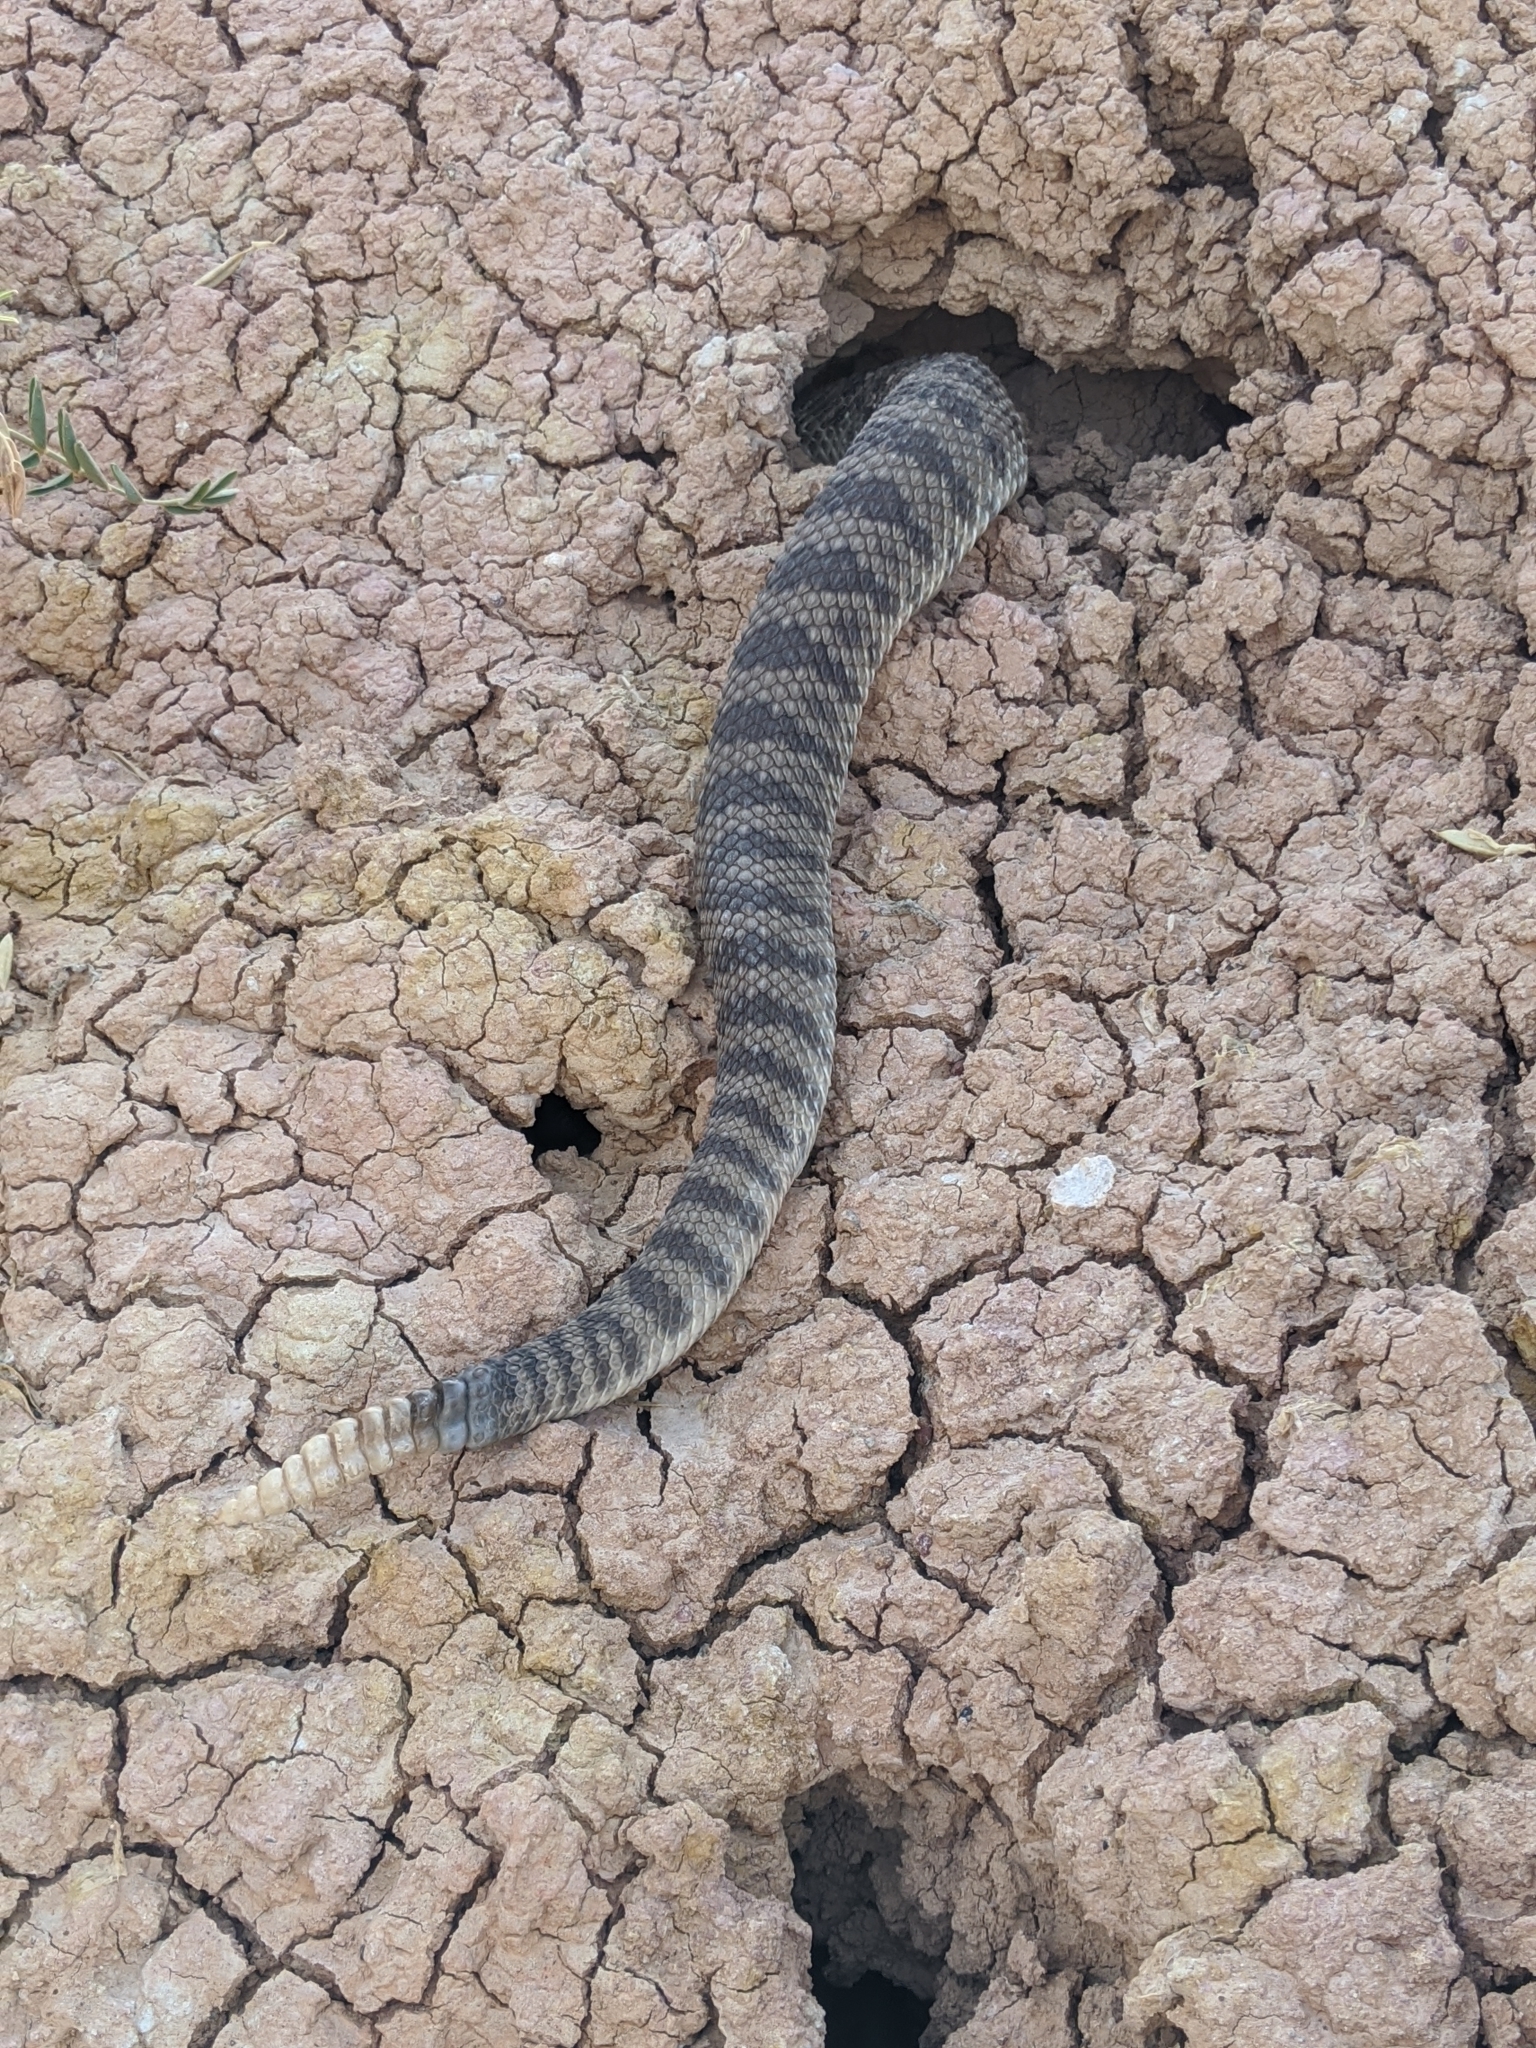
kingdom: Animalia
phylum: Chordata
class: Squamata
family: Viperidae
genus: Crotalus
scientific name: Crotalus viridis
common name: Prairie rattlesnake
